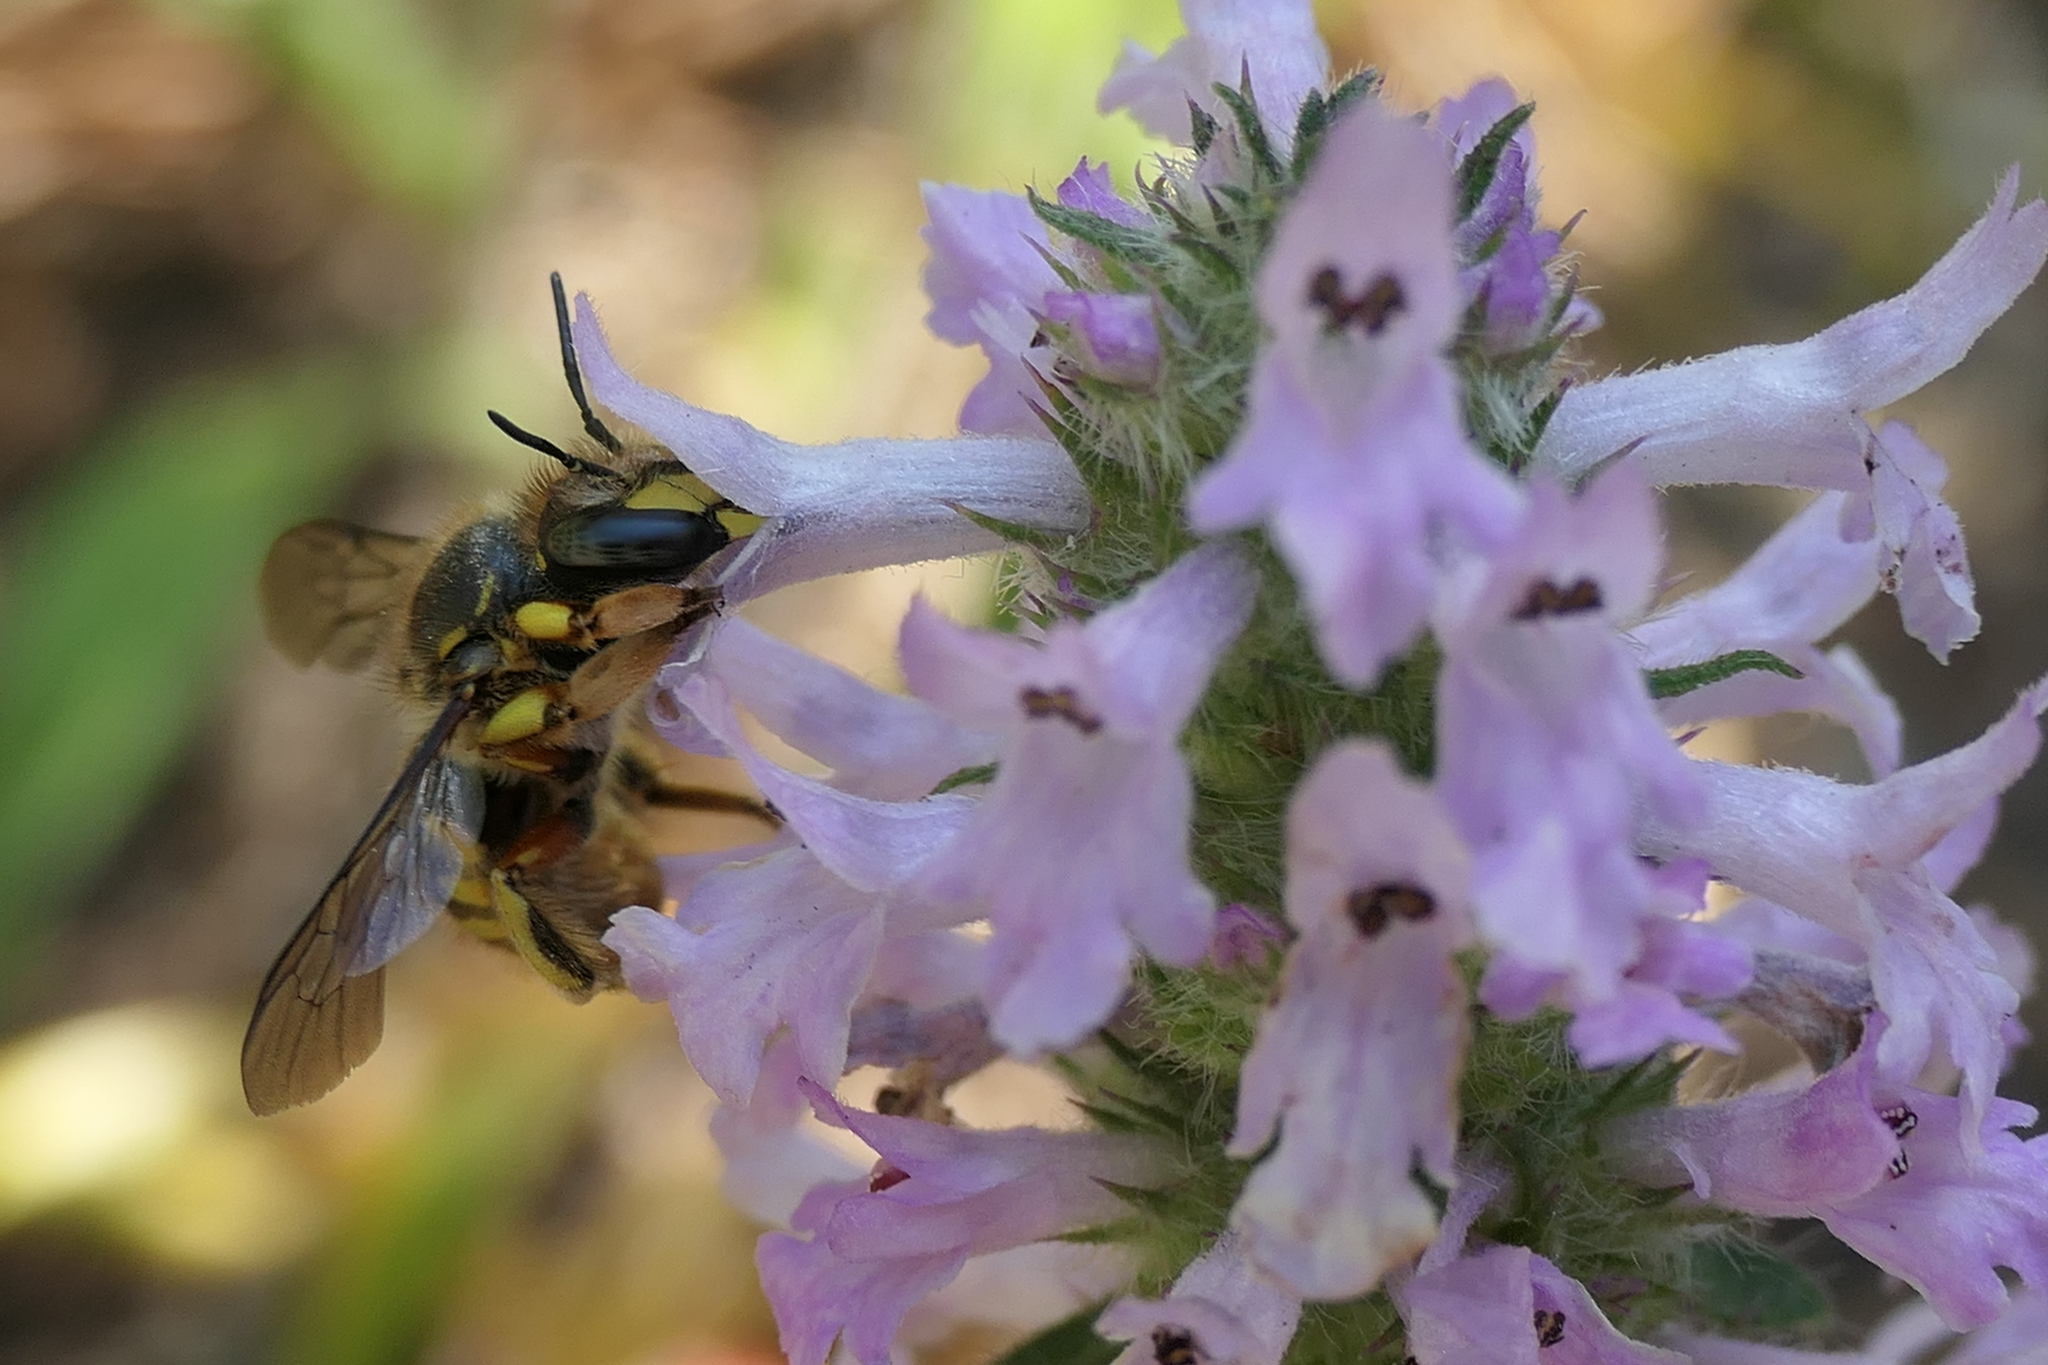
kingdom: Animalia
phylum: Arthropoda
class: Insecta
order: Hymenoptera
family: Megachilidae
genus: Anthidium
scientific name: Anthidium manicatum
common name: Wool carder bee
